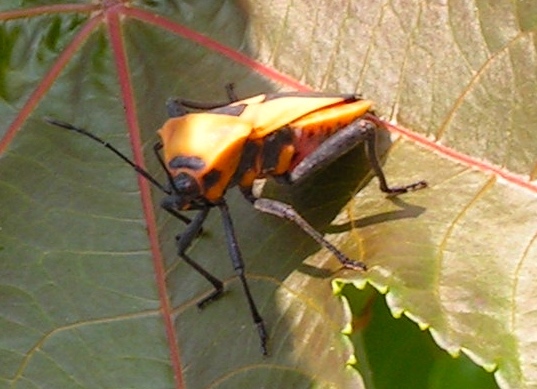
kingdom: Animalia
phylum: Arthropoda
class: Insecta
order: Hemiptera
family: Coreidae
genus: Sagotylus
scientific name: Sagotylus confluens
